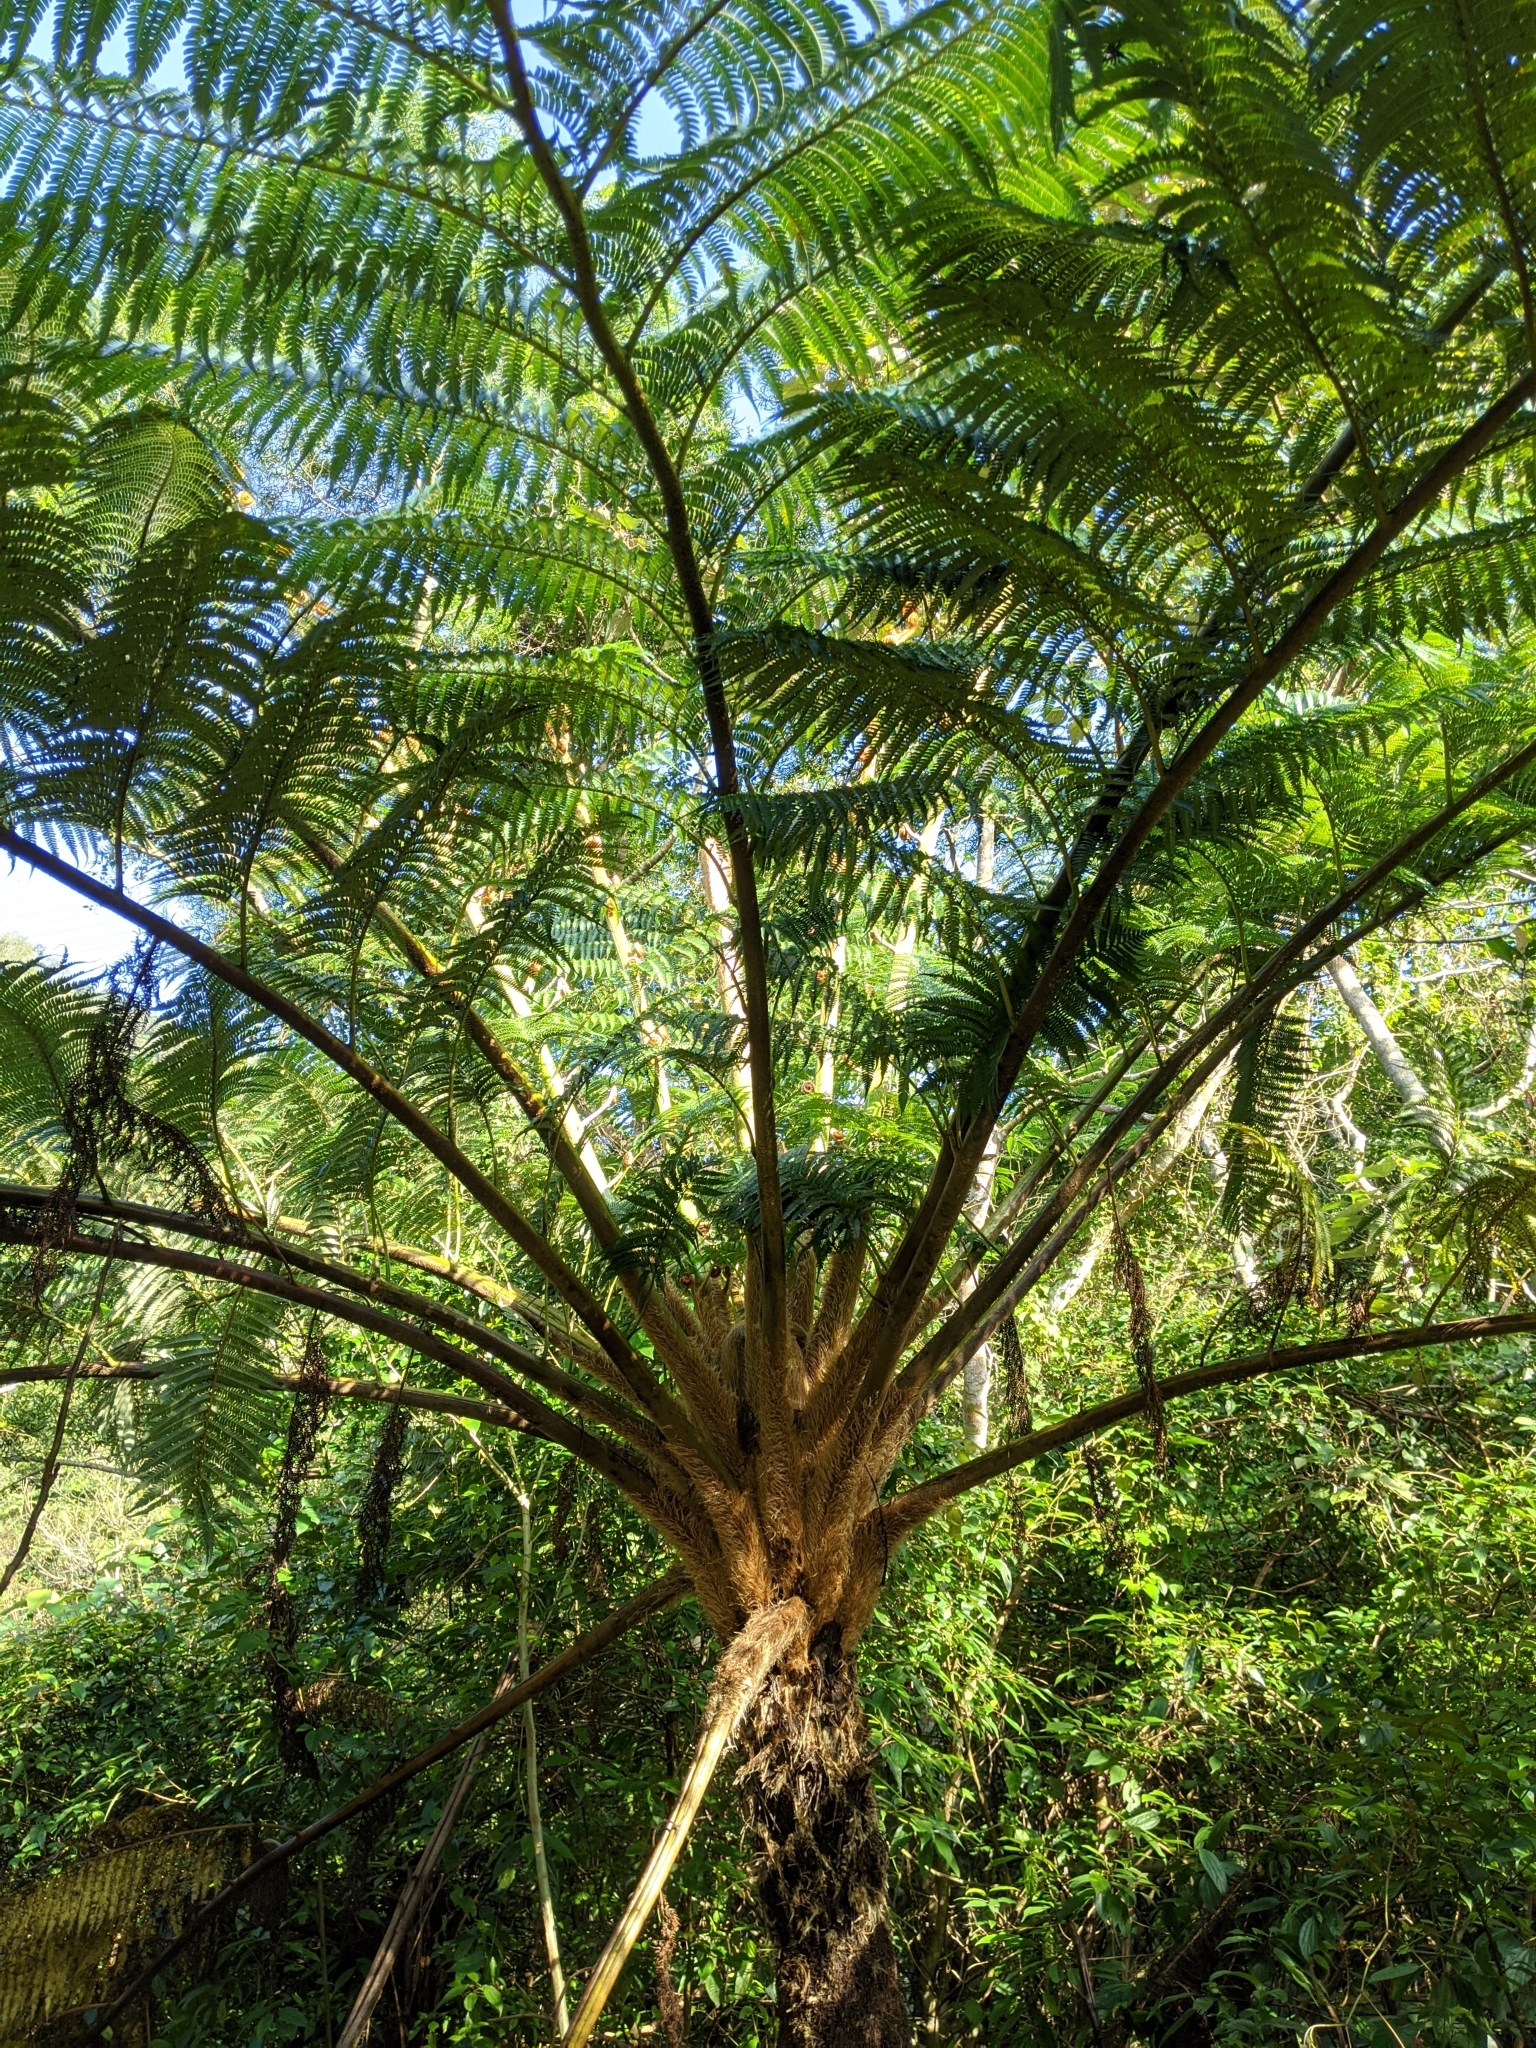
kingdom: Plantae
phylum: Tracheophyta
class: Polypodiopsida
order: Cyatheales
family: Cyatheaceae
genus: Alsophila
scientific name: Alsophila lepifera
